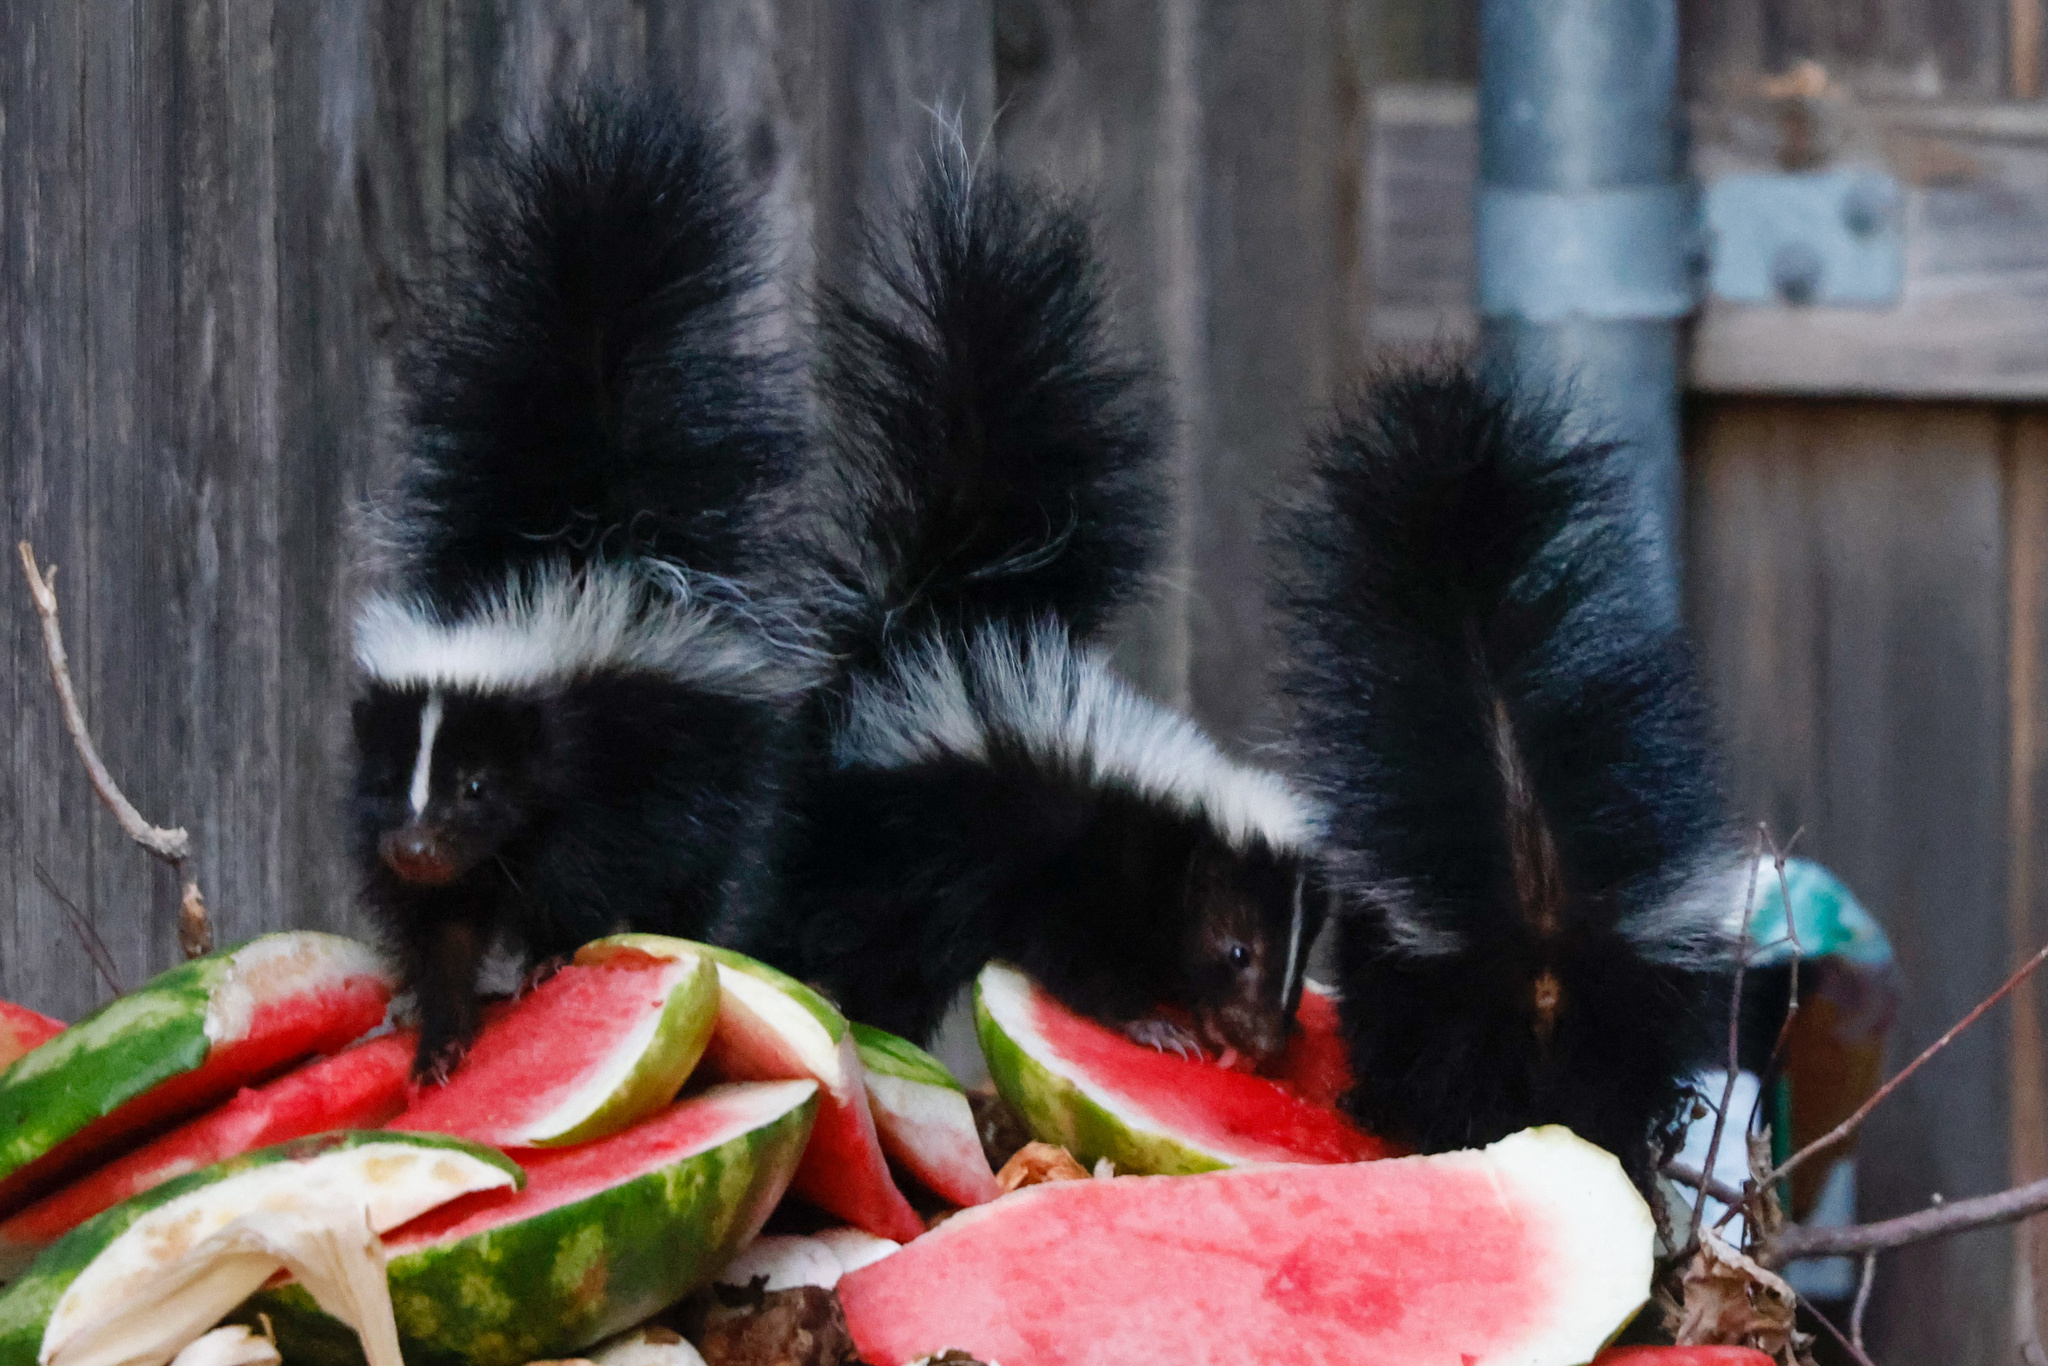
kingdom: Animalia
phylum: Chordata
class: Mammalia
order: Carnivora
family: Mephitidae
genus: Mephitis
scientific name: Mephitis mephitis
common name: Striped skunk
